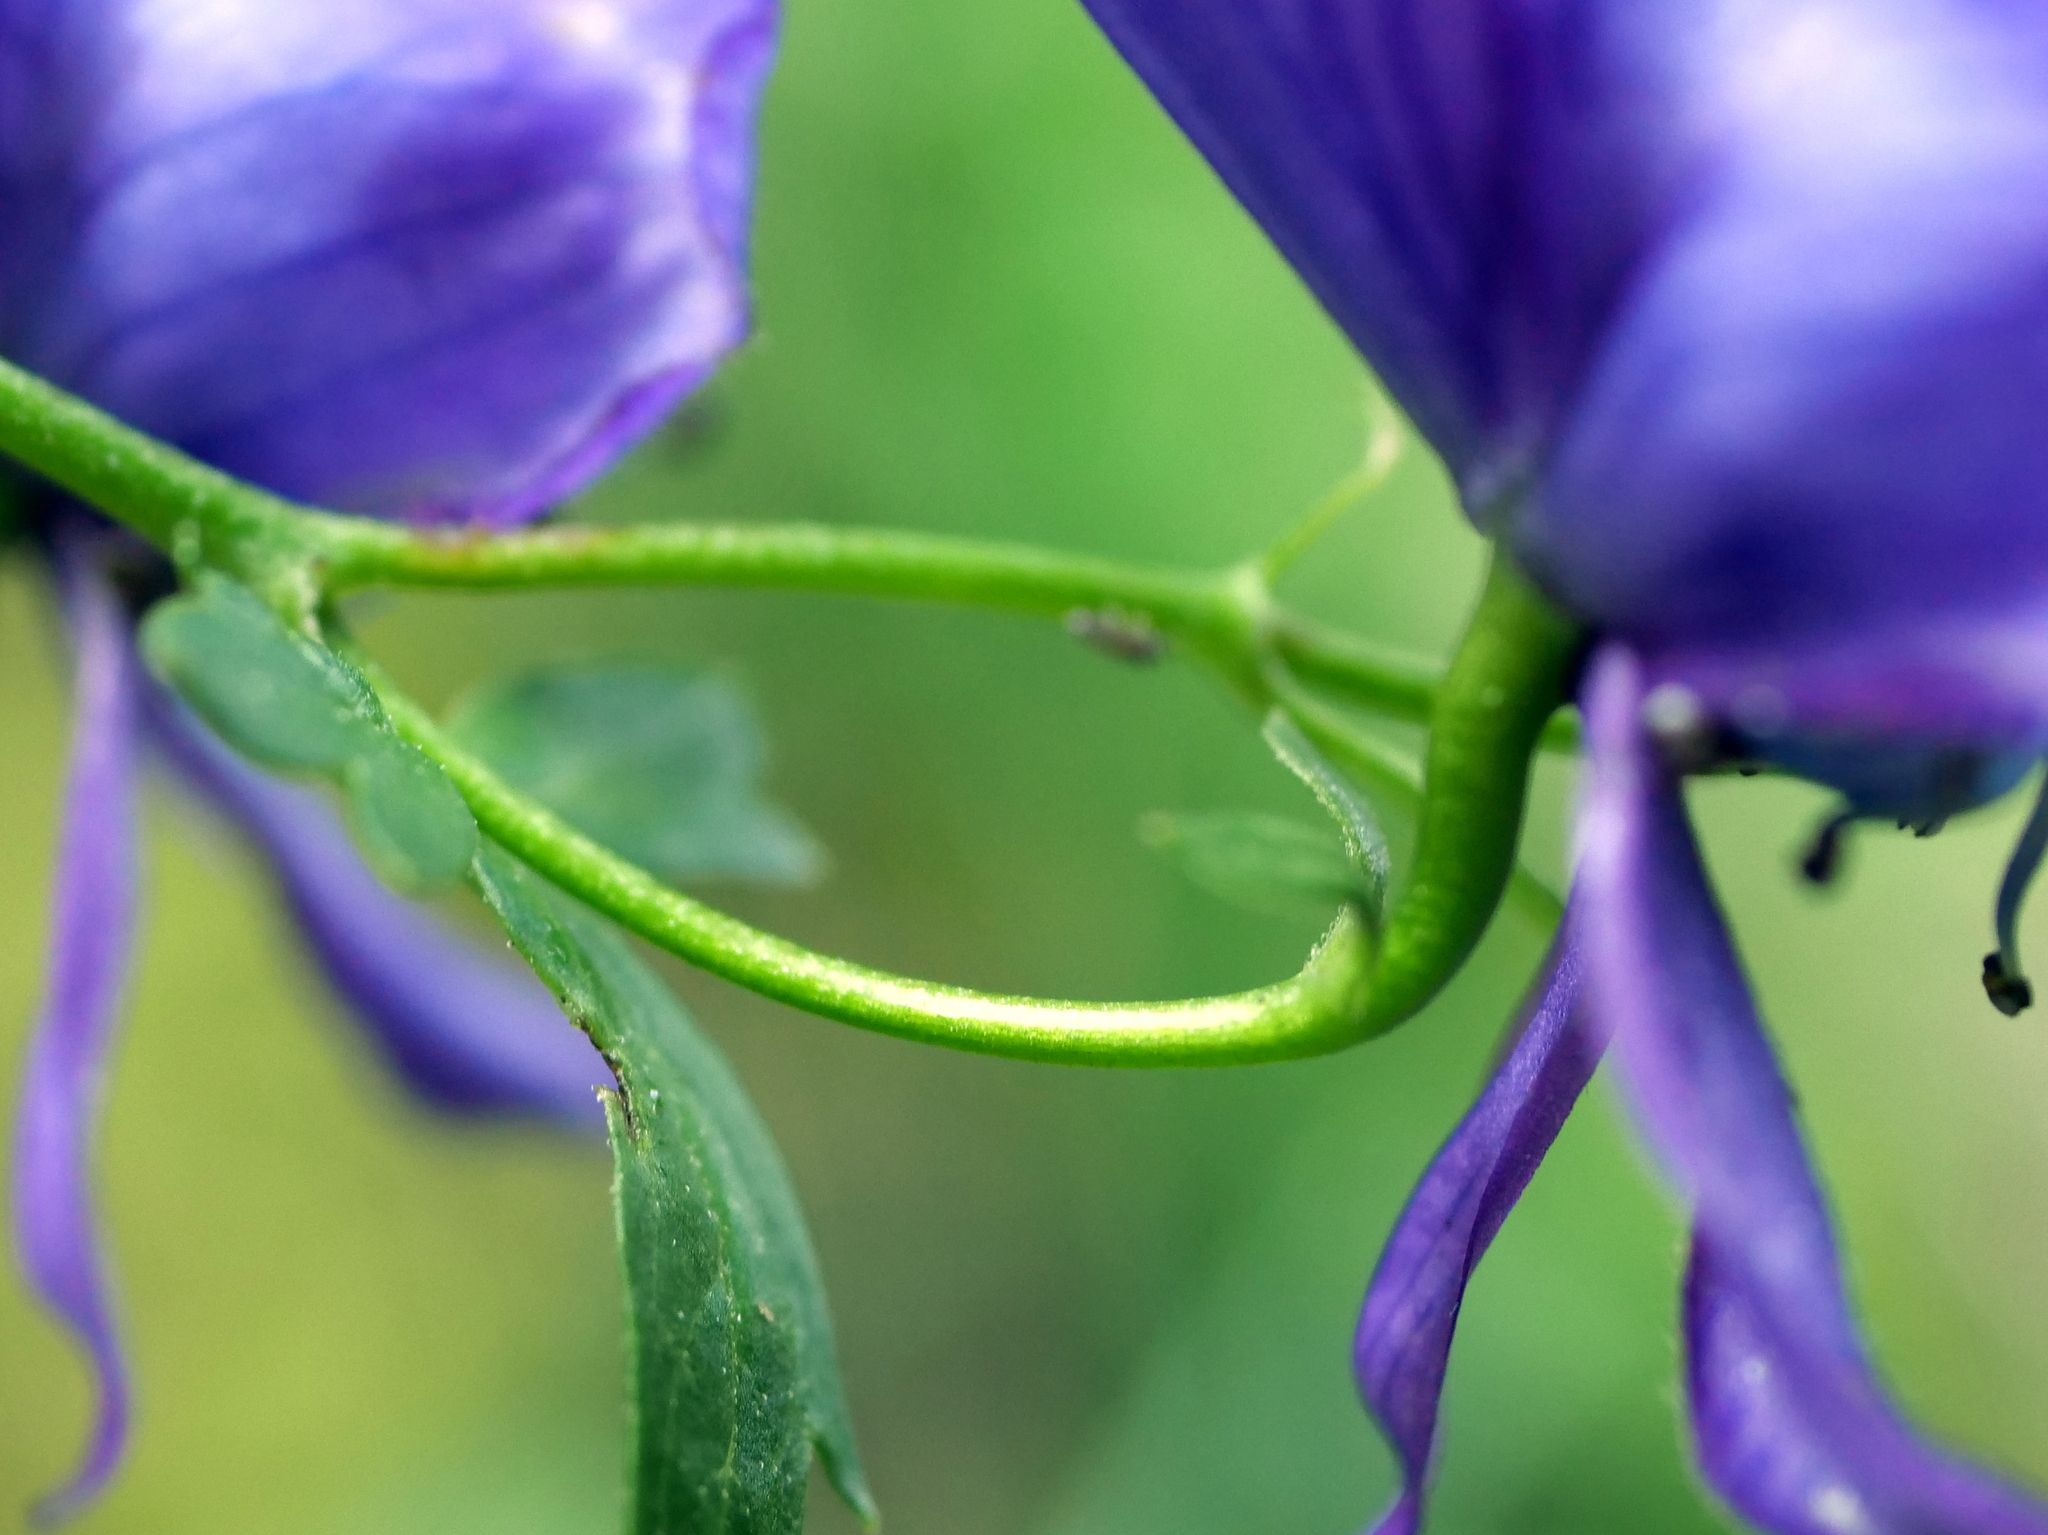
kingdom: Plantae
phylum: Tracheophyta
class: Magnoliopsida
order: Ranunculales
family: Ranunculaceae
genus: Aconitum
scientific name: Aconitum variegatum
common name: Manchurian monkshood
